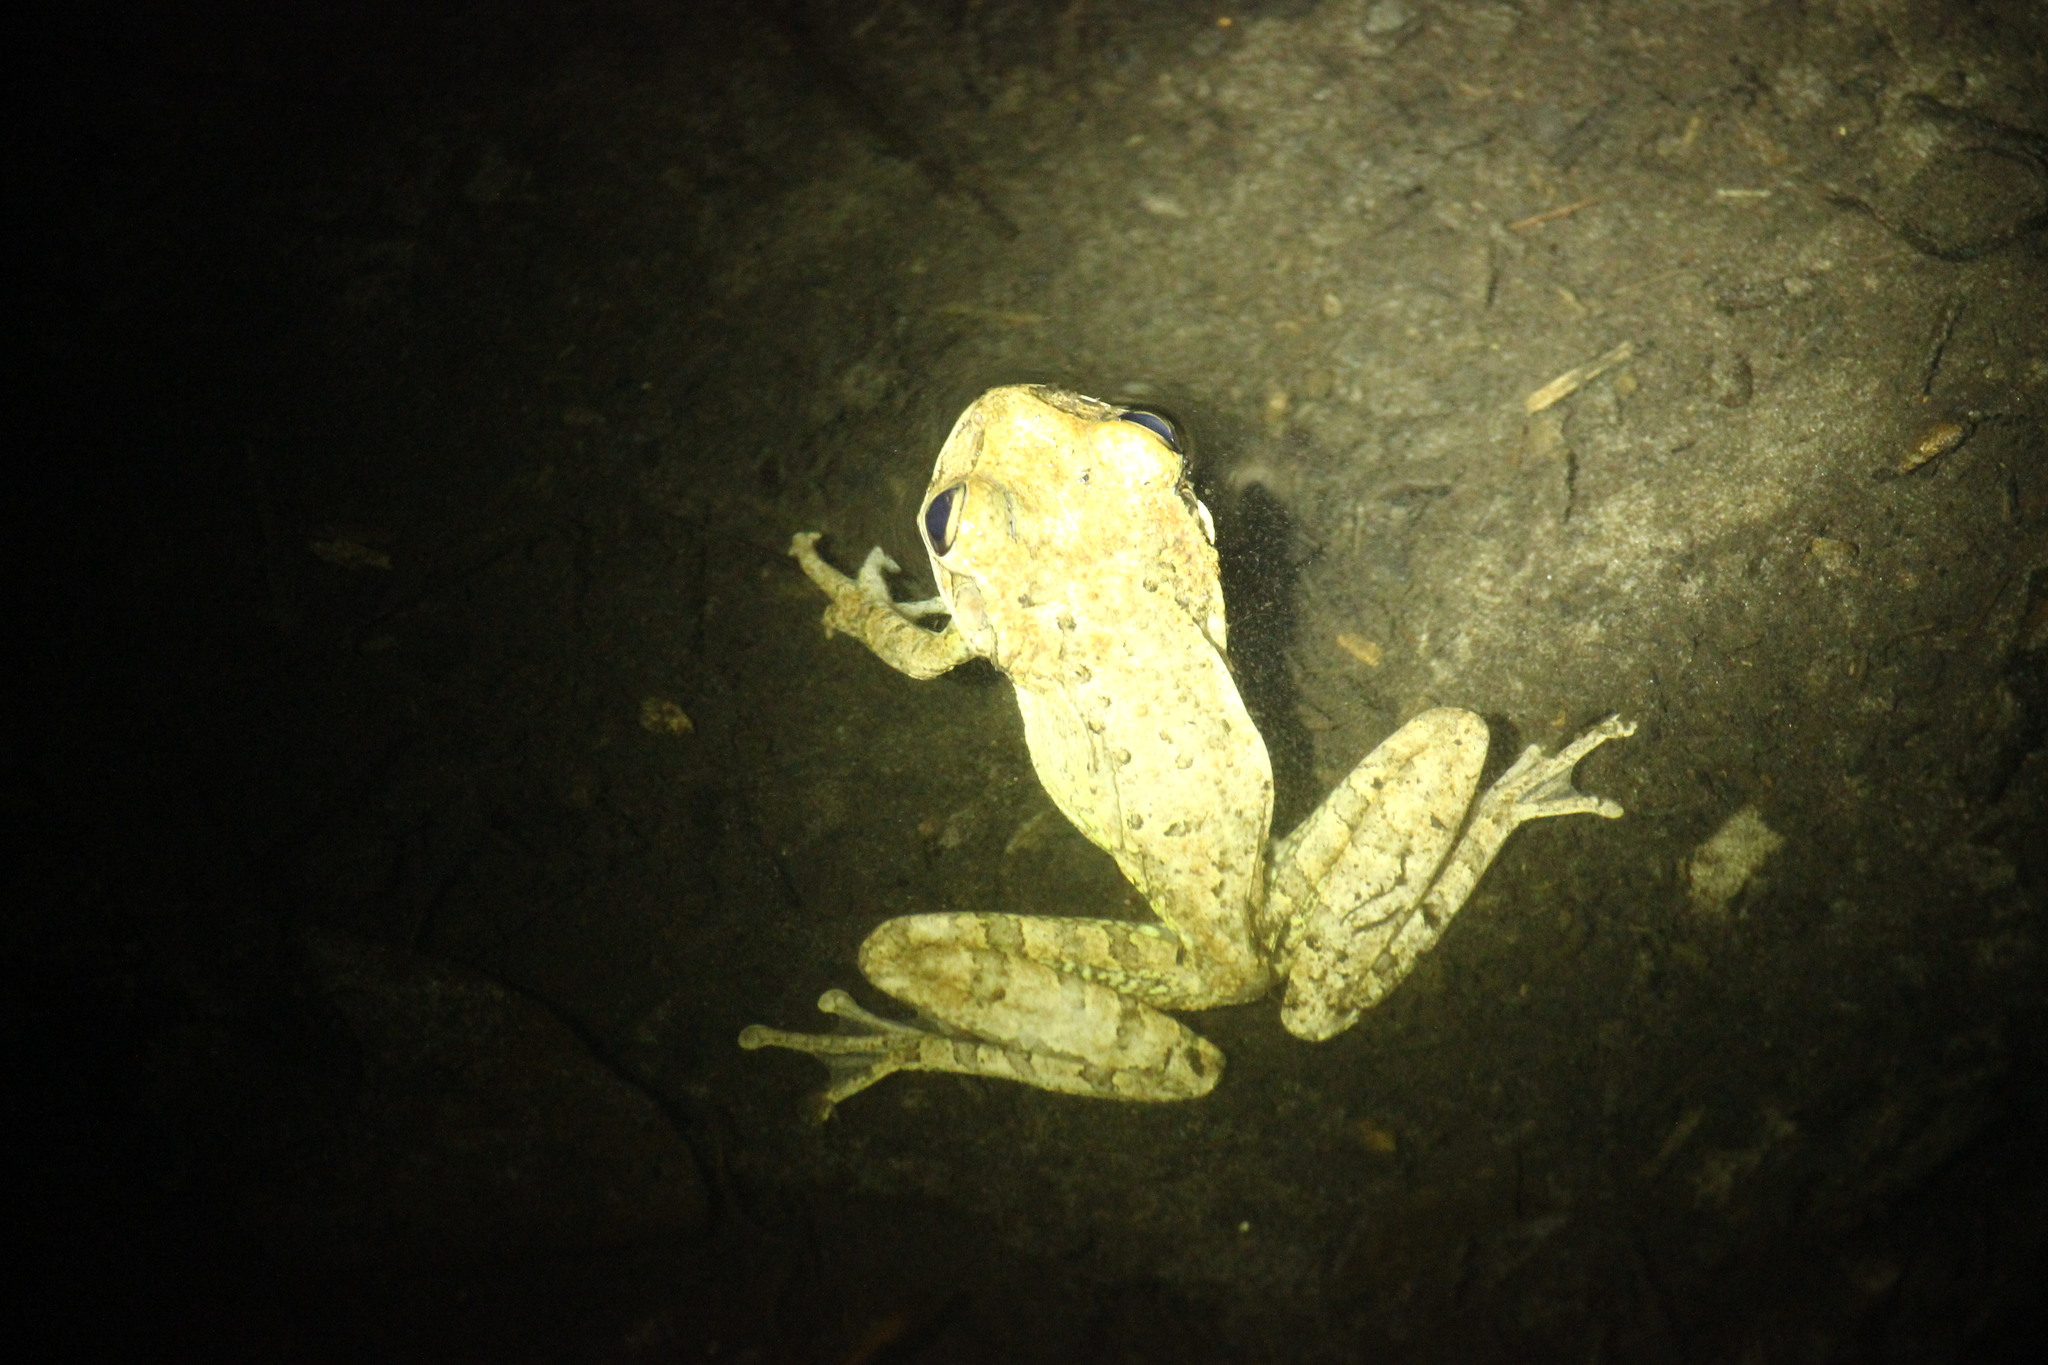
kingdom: Animalia
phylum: Chordata
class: Amphibia
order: Anura
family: Hylidae
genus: Osteopilus
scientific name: Osteopilus septentrionalis
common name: Cuban treefrog
